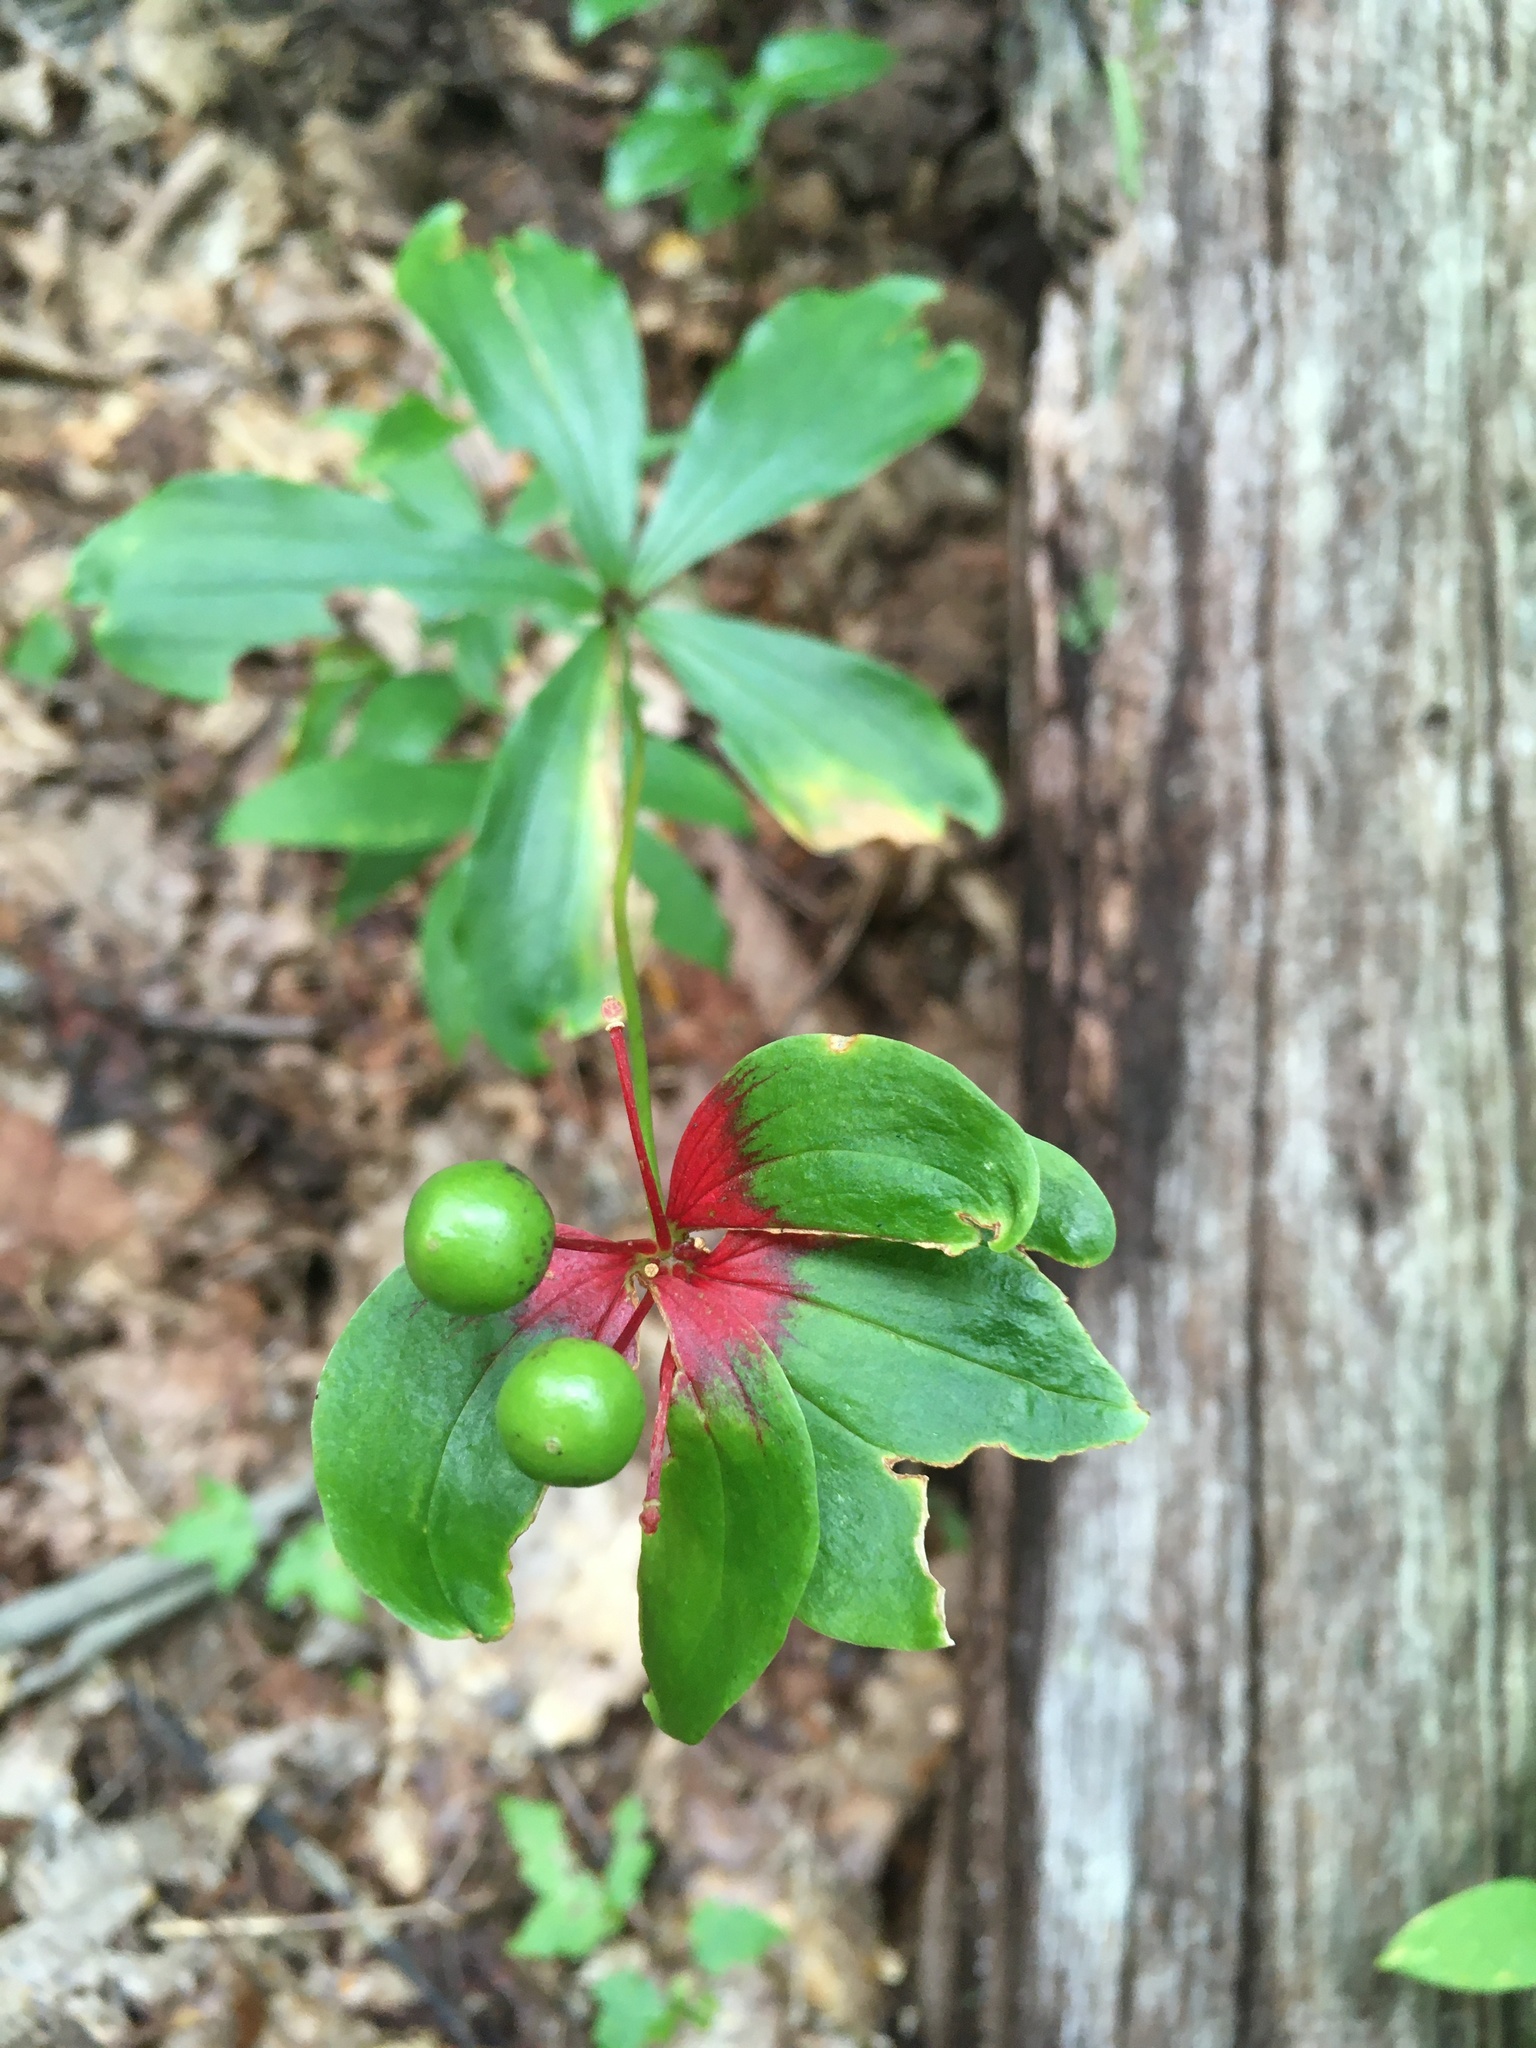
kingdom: Plantae
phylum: Tracheophyta
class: Liliopsida
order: Liliales
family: Liliaceae
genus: Medeola
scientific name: Medeola virginiana
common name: Indian cucumber-root
